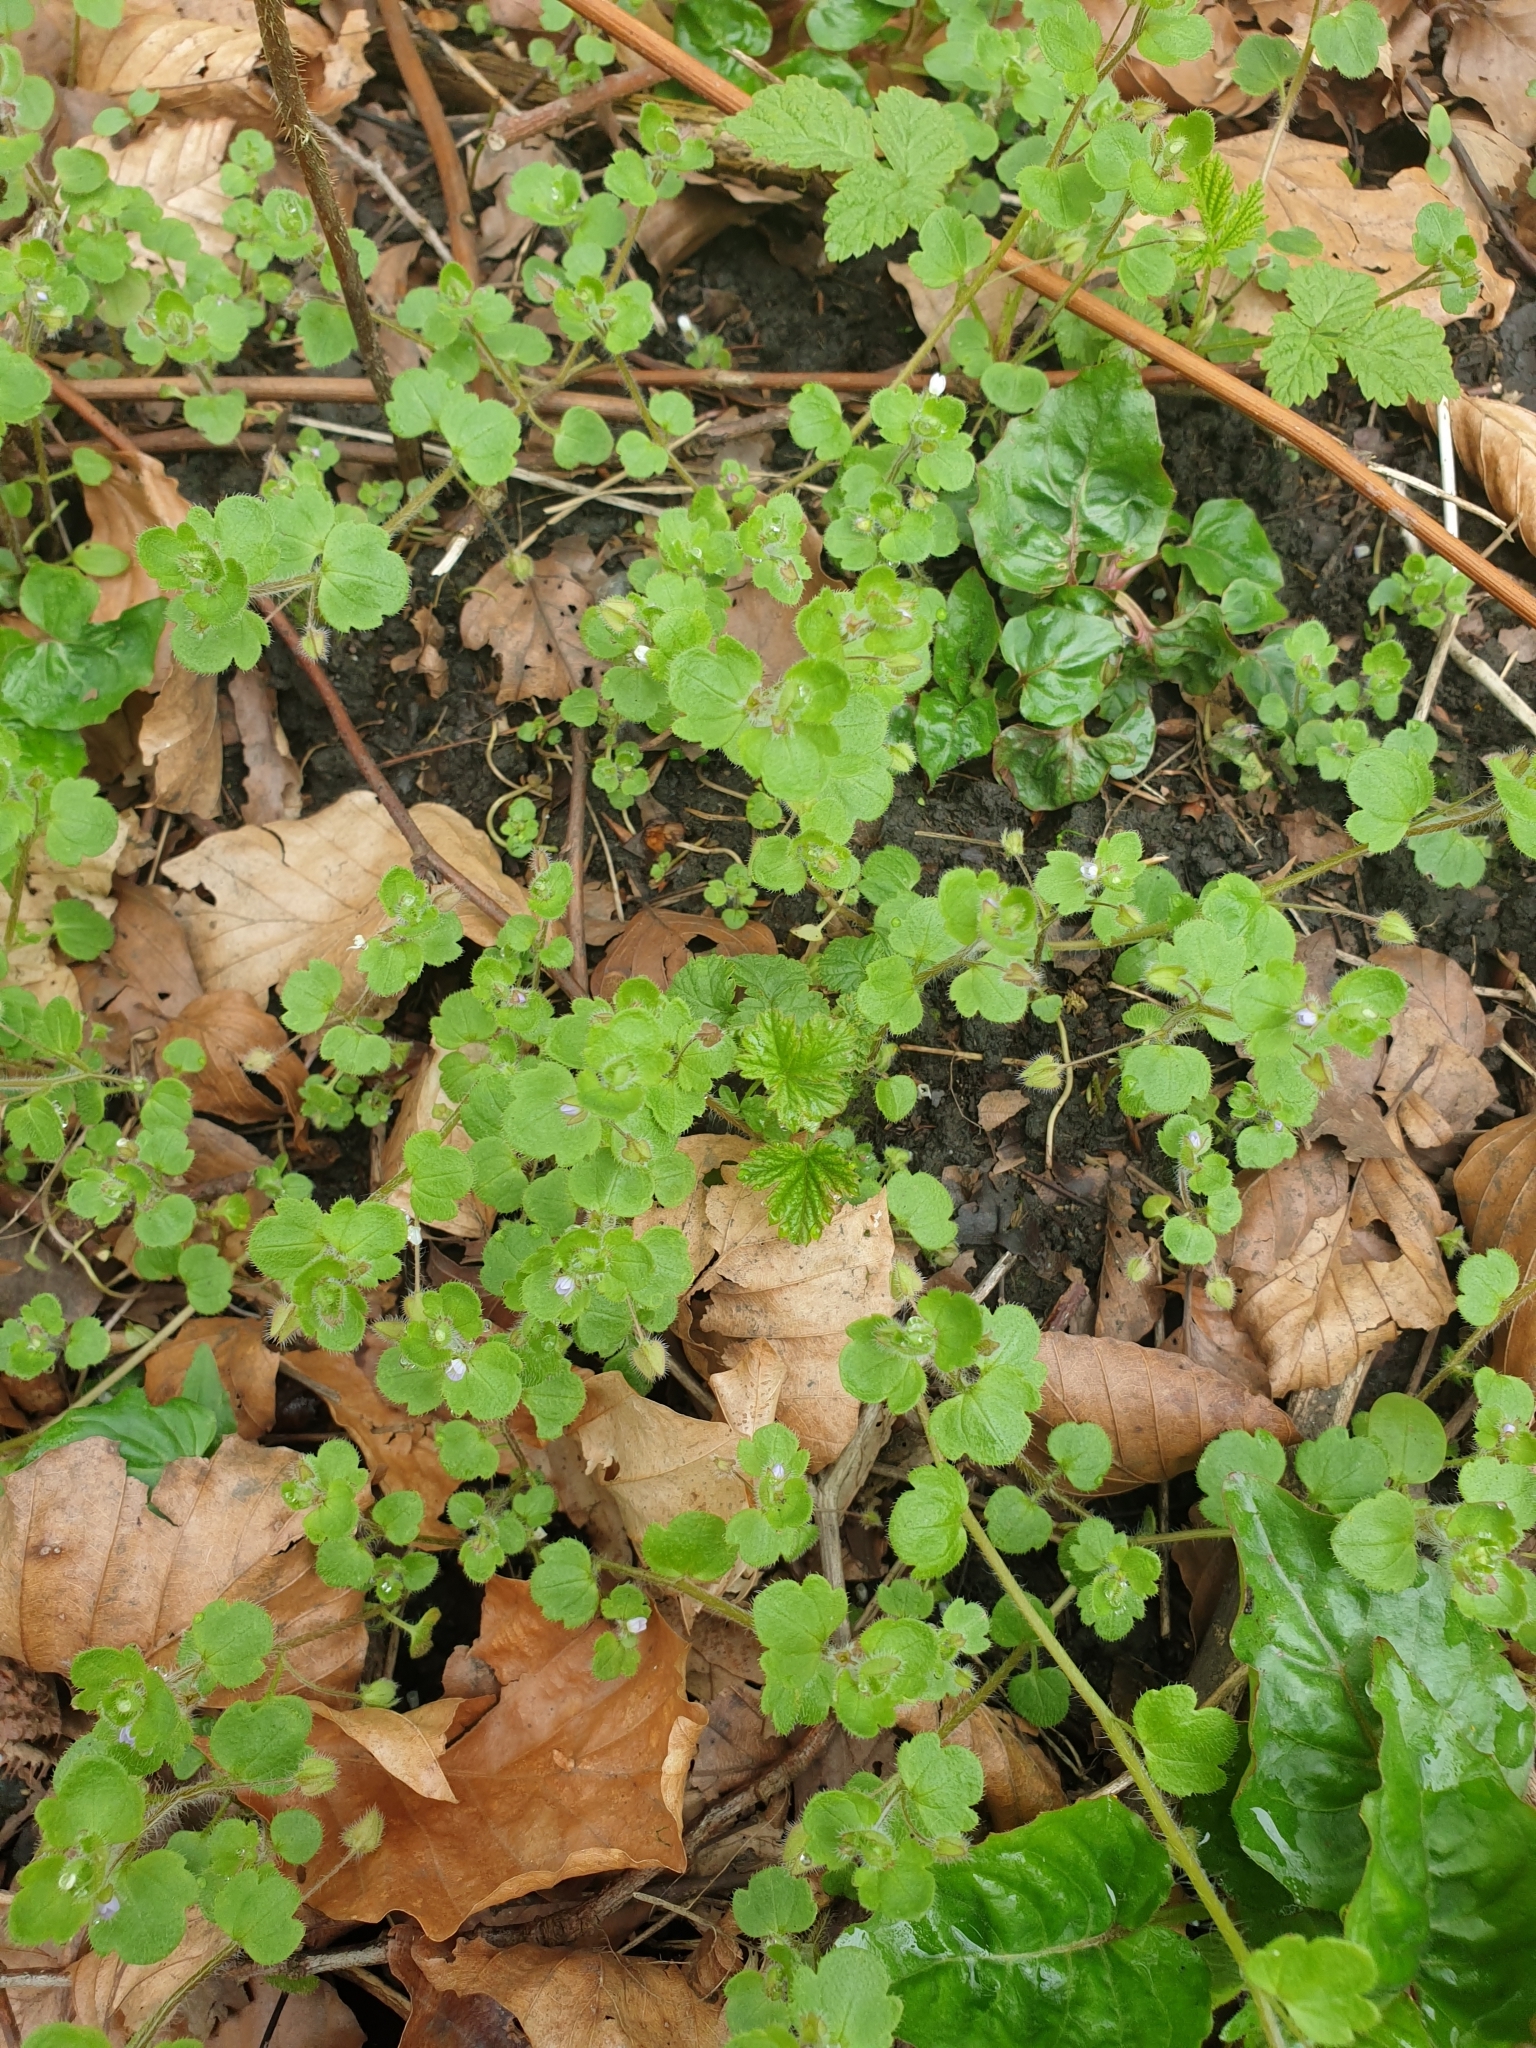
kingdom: Plantae
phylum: Tracheophyta
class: Magnoliopsida
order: Lamiales
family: Plantaginaceae
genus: Veronica
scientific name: Veronica sublobata
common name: False ivy-leaved speedwell
